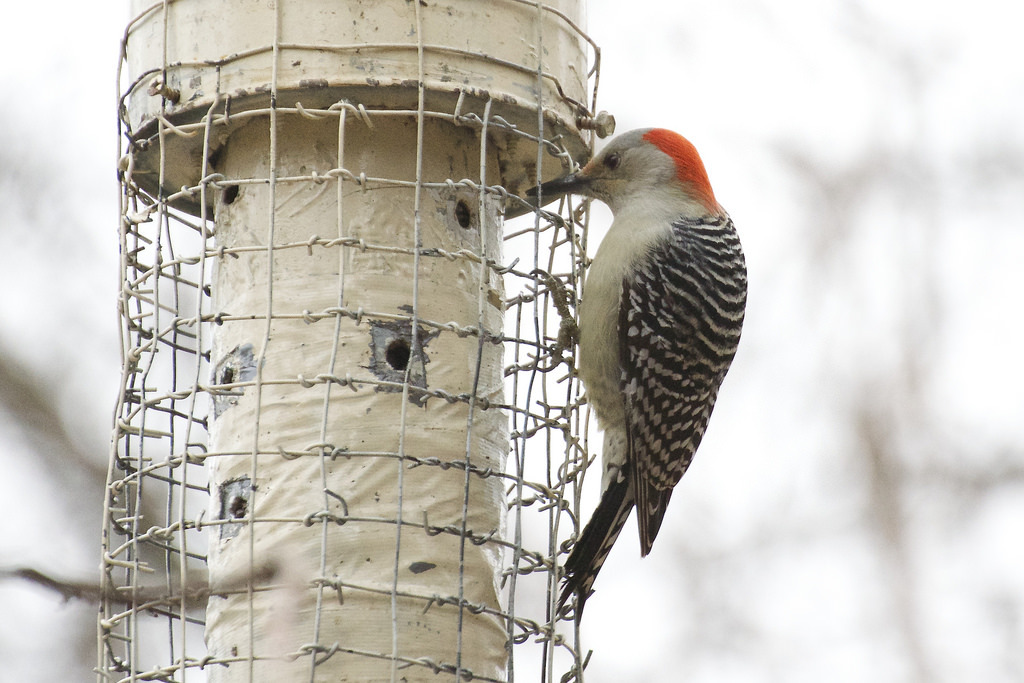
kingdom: Animalia
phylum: Chordata
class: Aves
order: Piciformes
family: Picidae
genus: Melanerpes
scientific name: Melanerpes carolinus
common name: Red-bellied woodpecker
